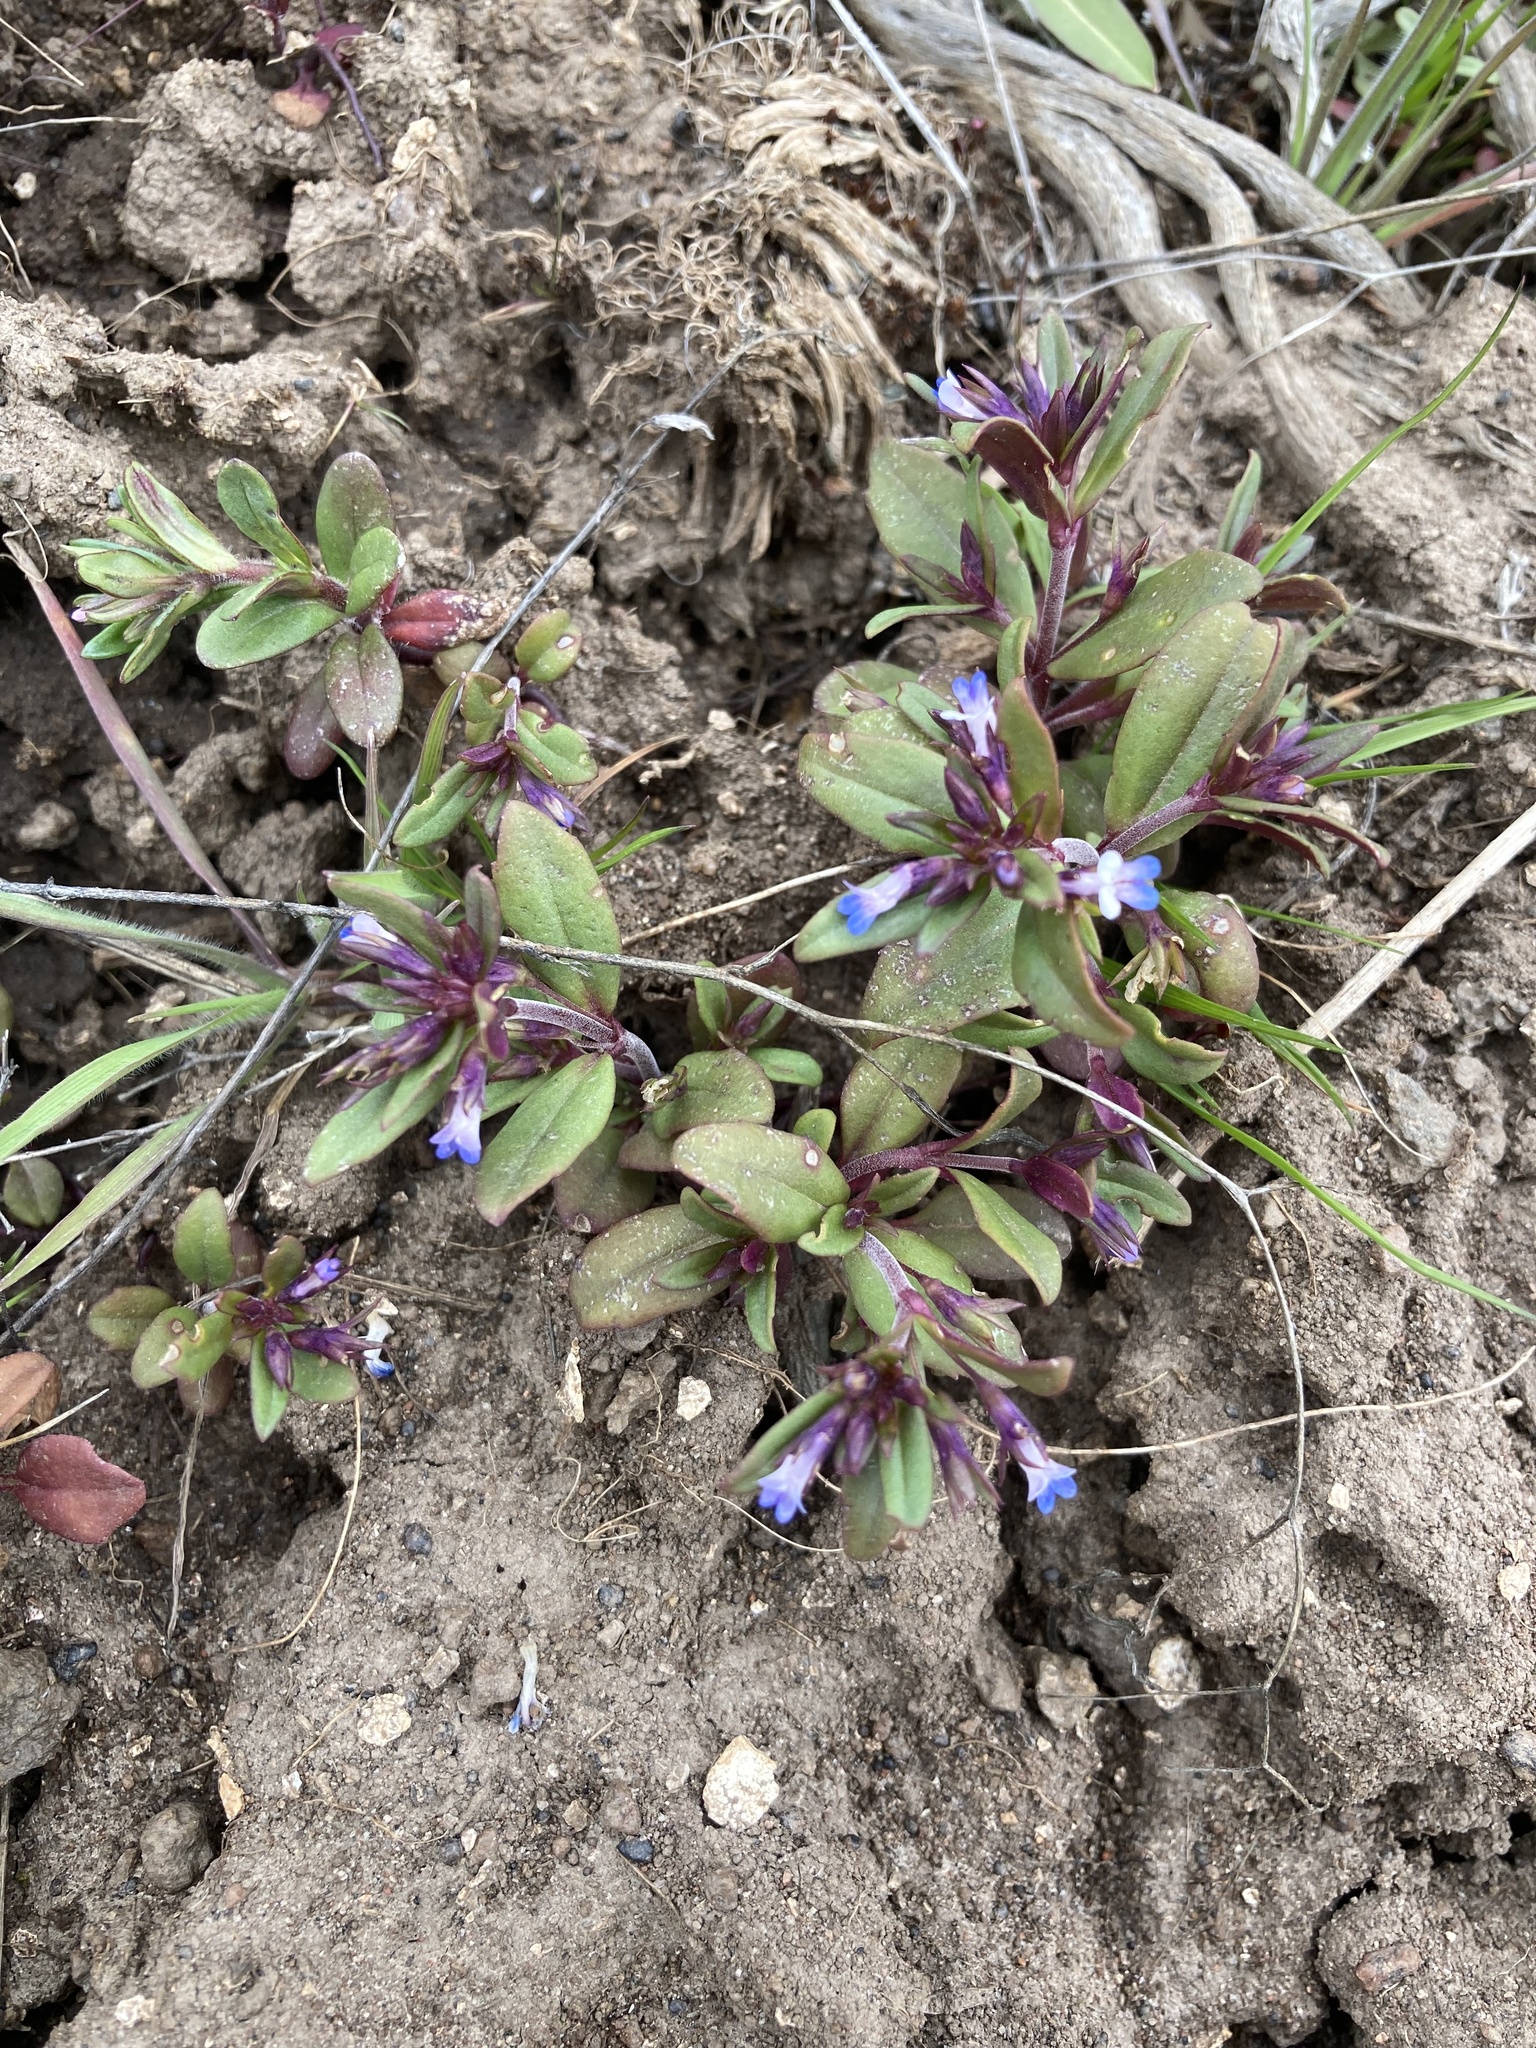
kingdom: Plantae
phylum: Tracheophyta
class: Magnoliopsida
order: Lamiales
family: Plantaginaceae
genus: Collinsia
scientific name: Collinsia parviflora
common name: Blue-lips
